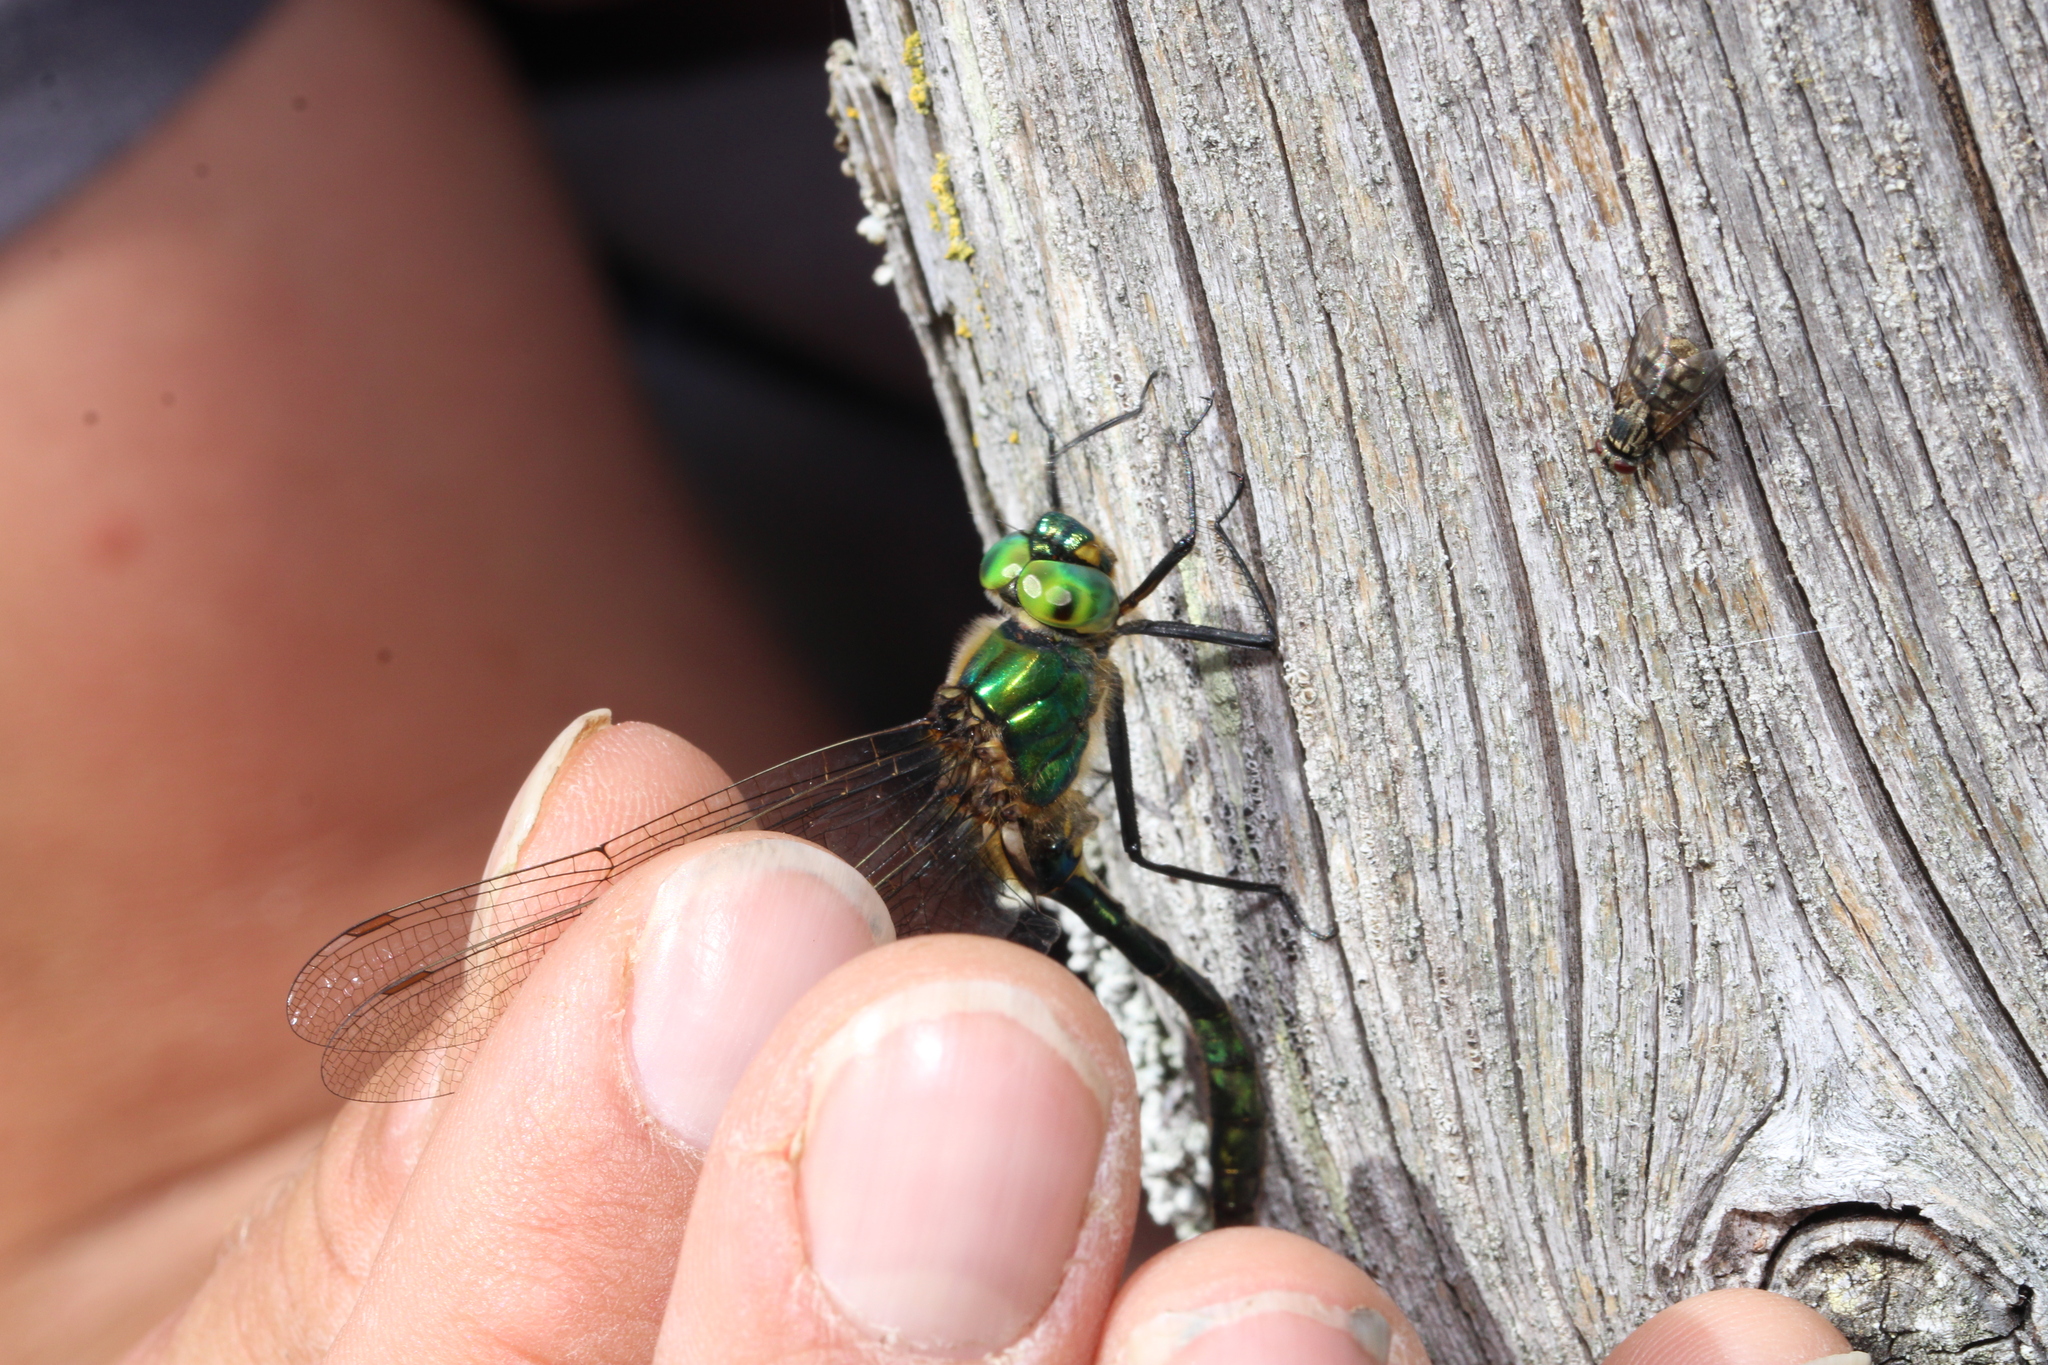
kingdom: Animalia
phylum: Arthropoda
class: Insecta
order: Odonata
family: Corduliidae
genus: Somatochlora
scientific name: Somatochlora metallica
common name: Brilliant emerald
